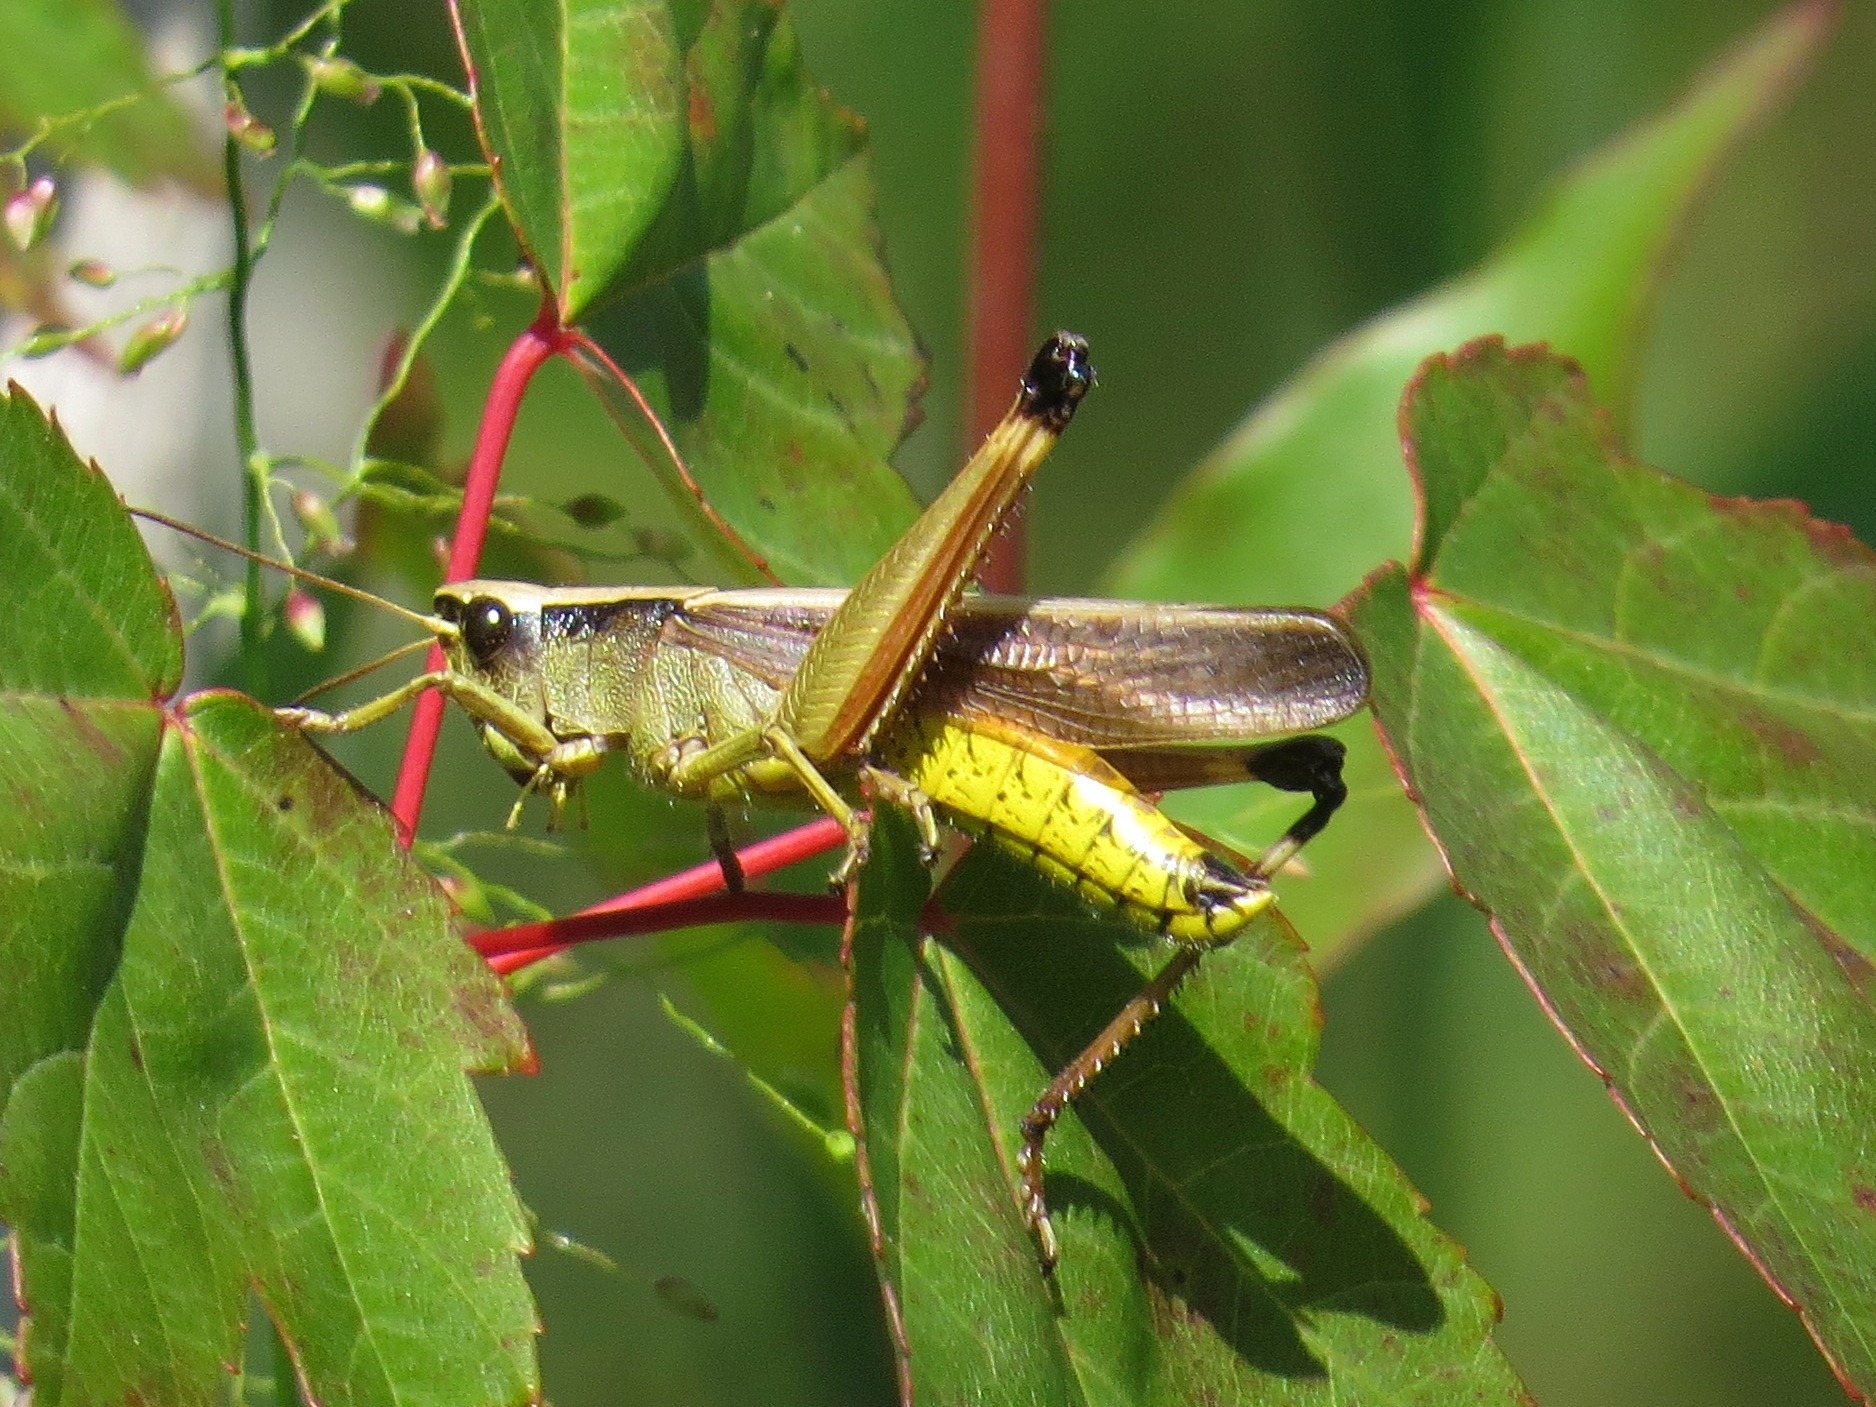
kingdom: Animalia
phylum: Arthropoda
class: Insecta
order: Orthoptera
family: Acrididae
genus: Stethophyma
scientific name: Stethophyma celatum
